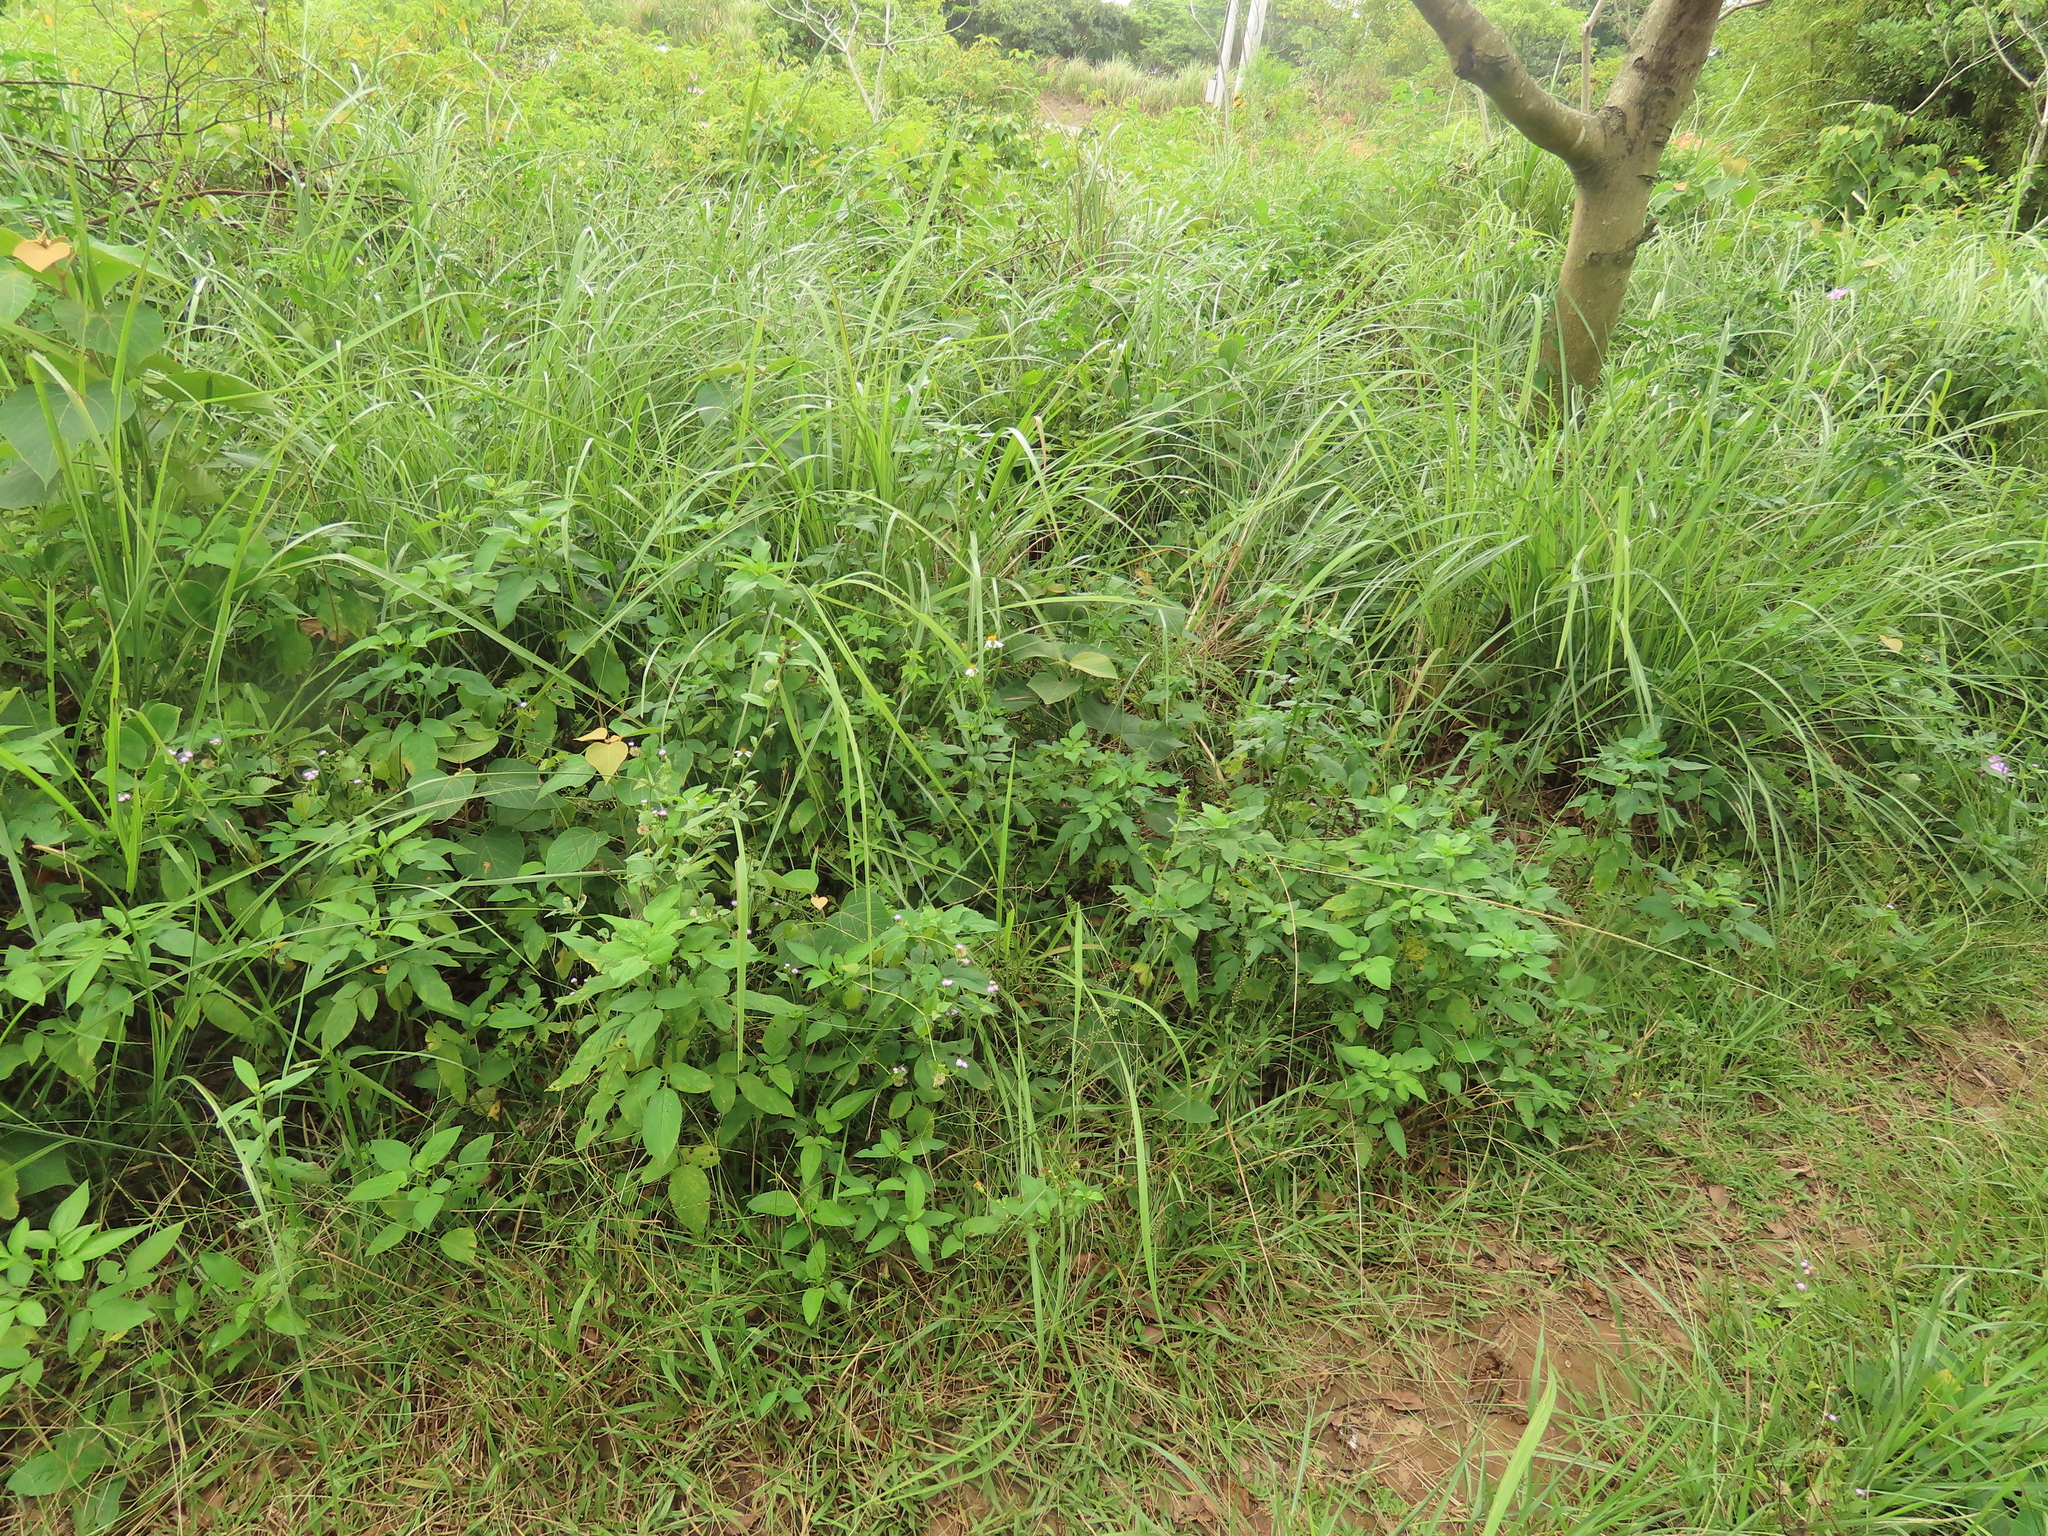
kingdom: Plantae
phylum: Tracheophyta
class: Magnoliopsida
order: Ericales
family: Primulaceae
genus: Lysimachia
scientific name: Lysimachia fortunei
